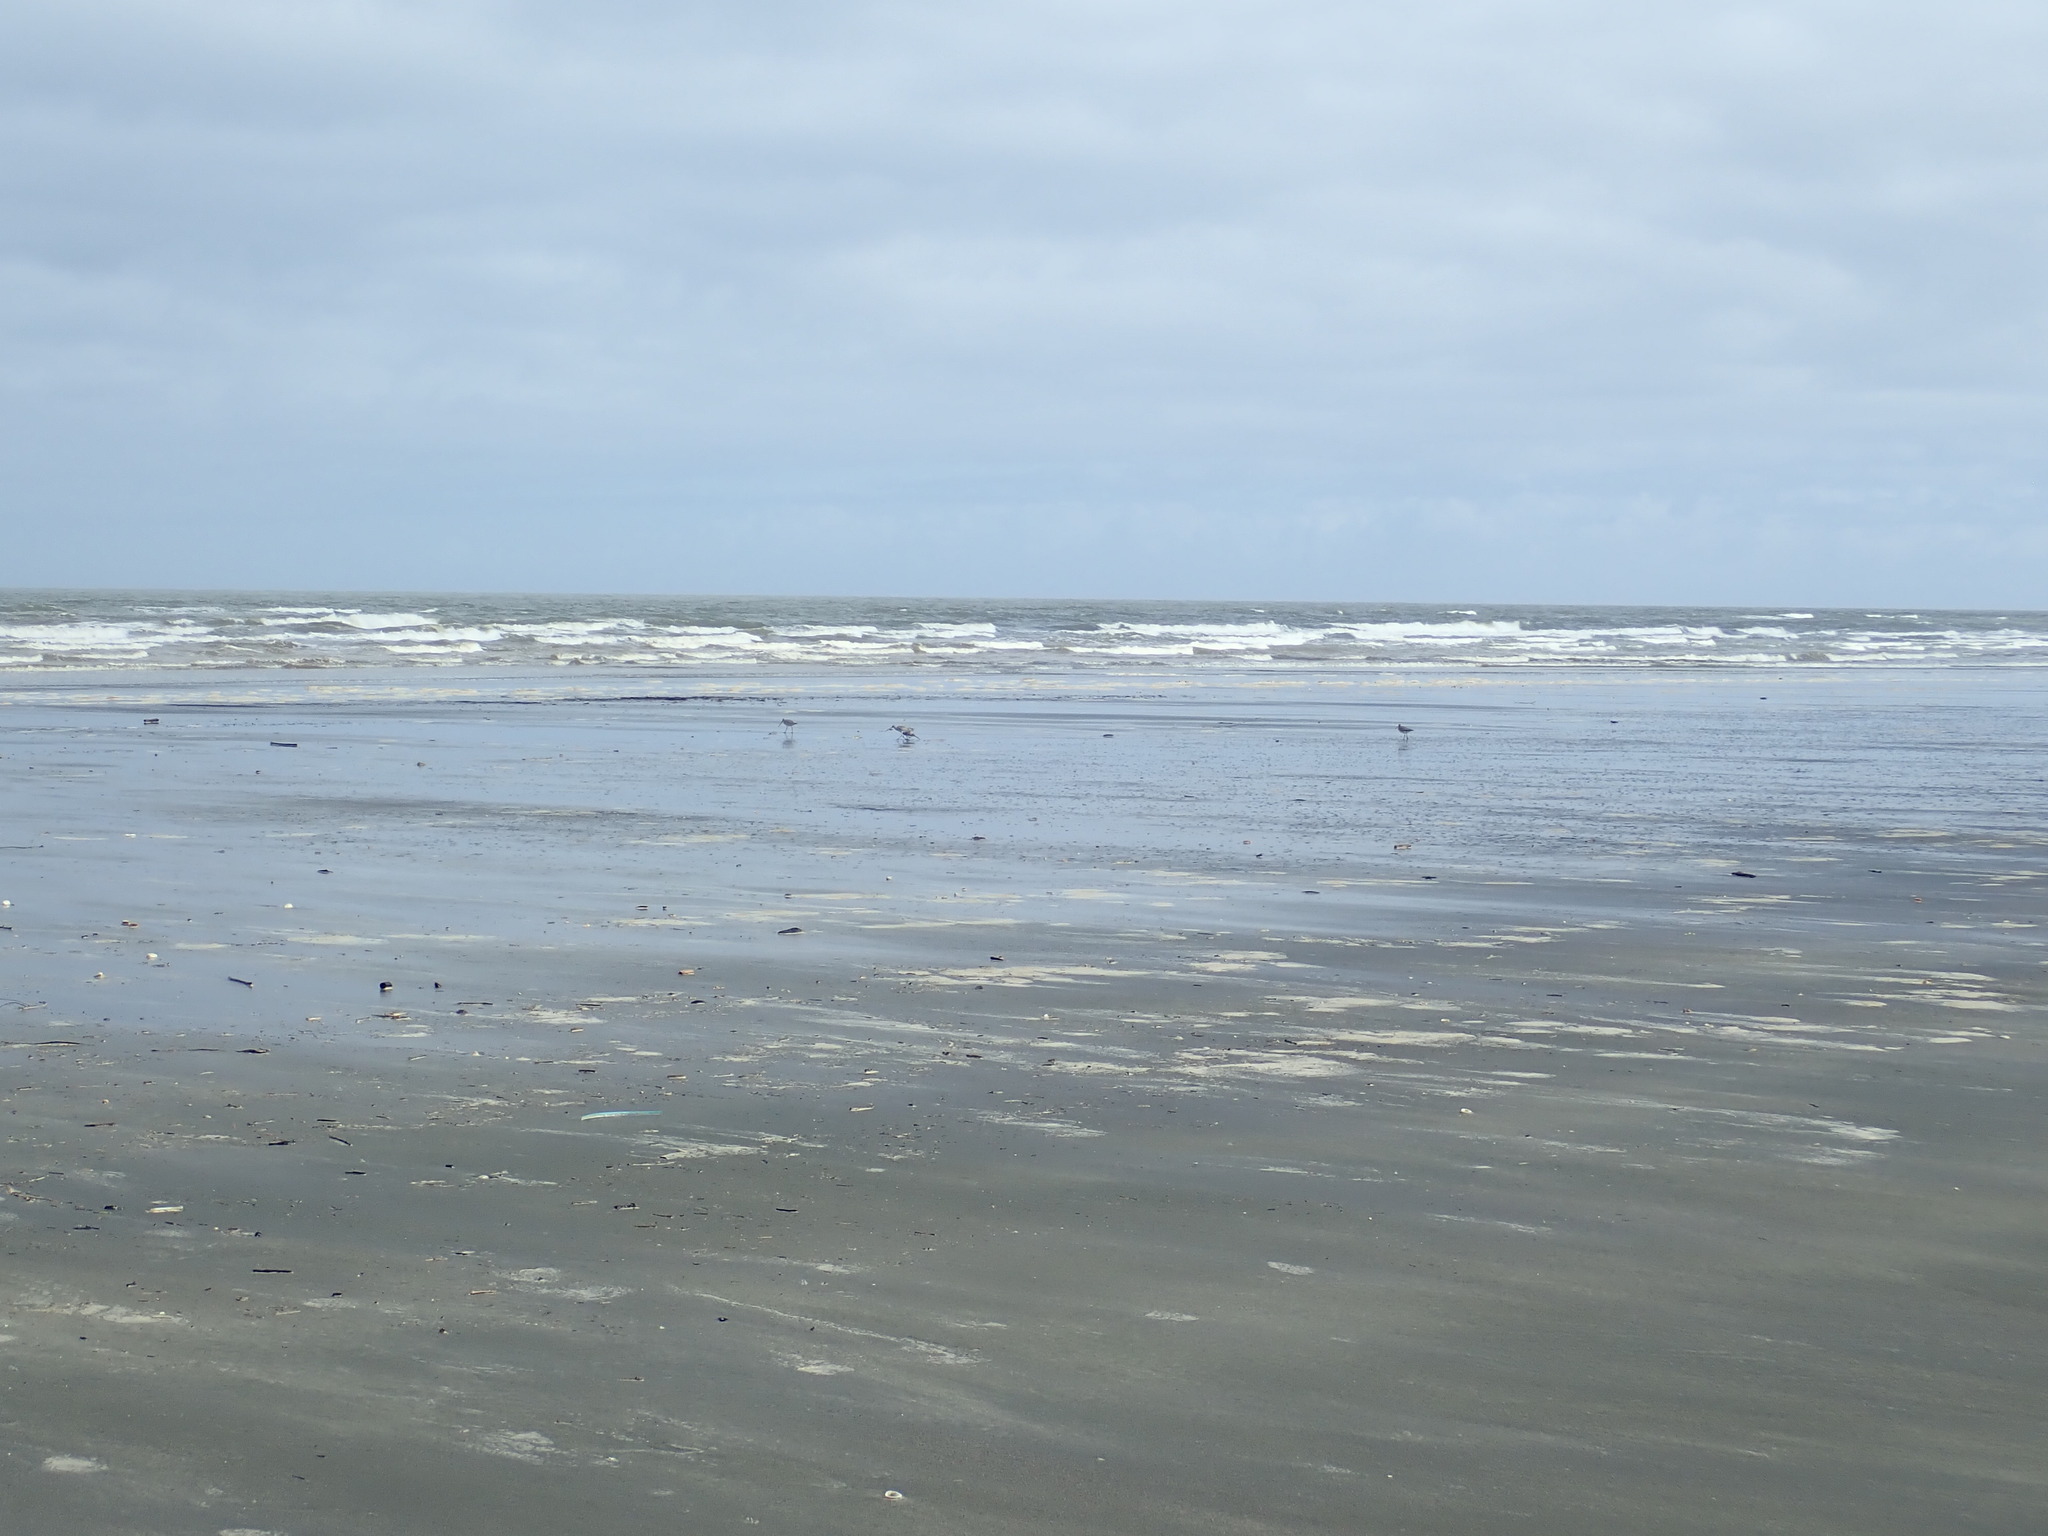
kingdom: Animalia
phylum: Chordata
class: Aves
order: Charadriiformes
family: Scolopacidae
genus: Limosa
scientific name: Limosa lapponica
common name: Bar-tailed godwit
